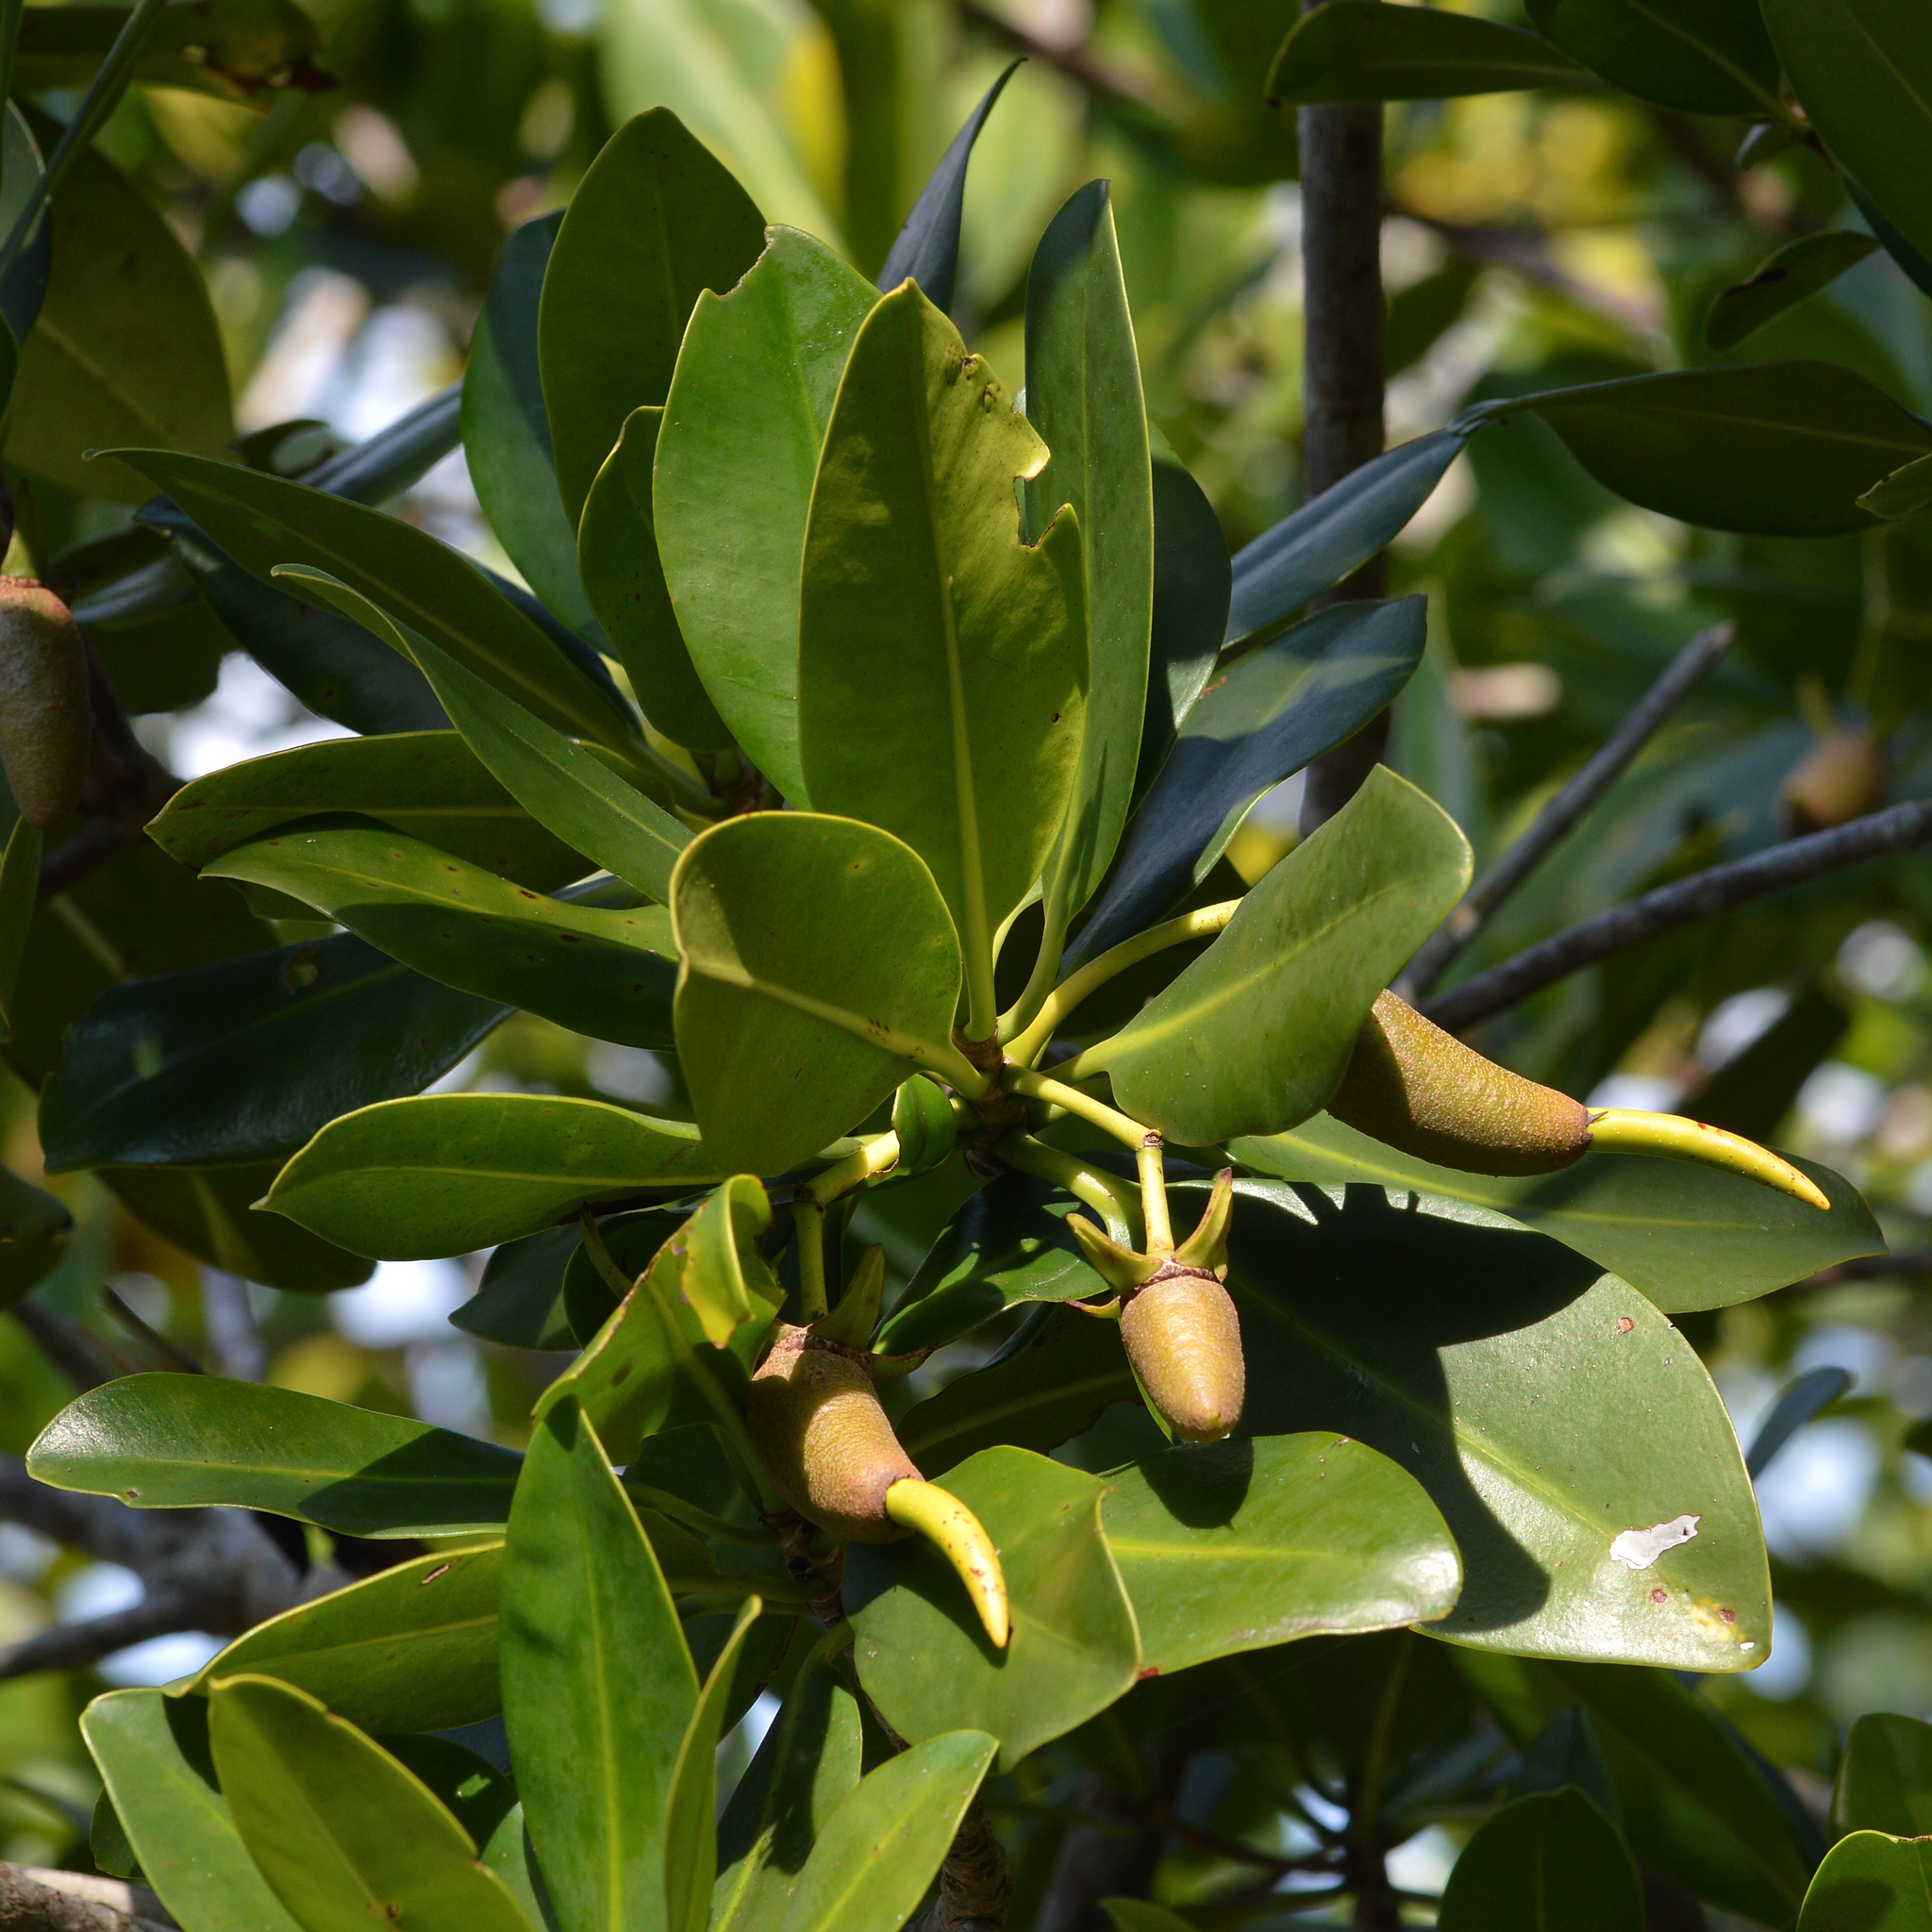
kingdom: Plantae
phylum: Tracheophyta
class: Magnoliopsida
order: Malpighiales
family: Rhizophoraceae
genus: Rhizophora
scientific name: Rhizophora mangle
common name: Red mangrove
